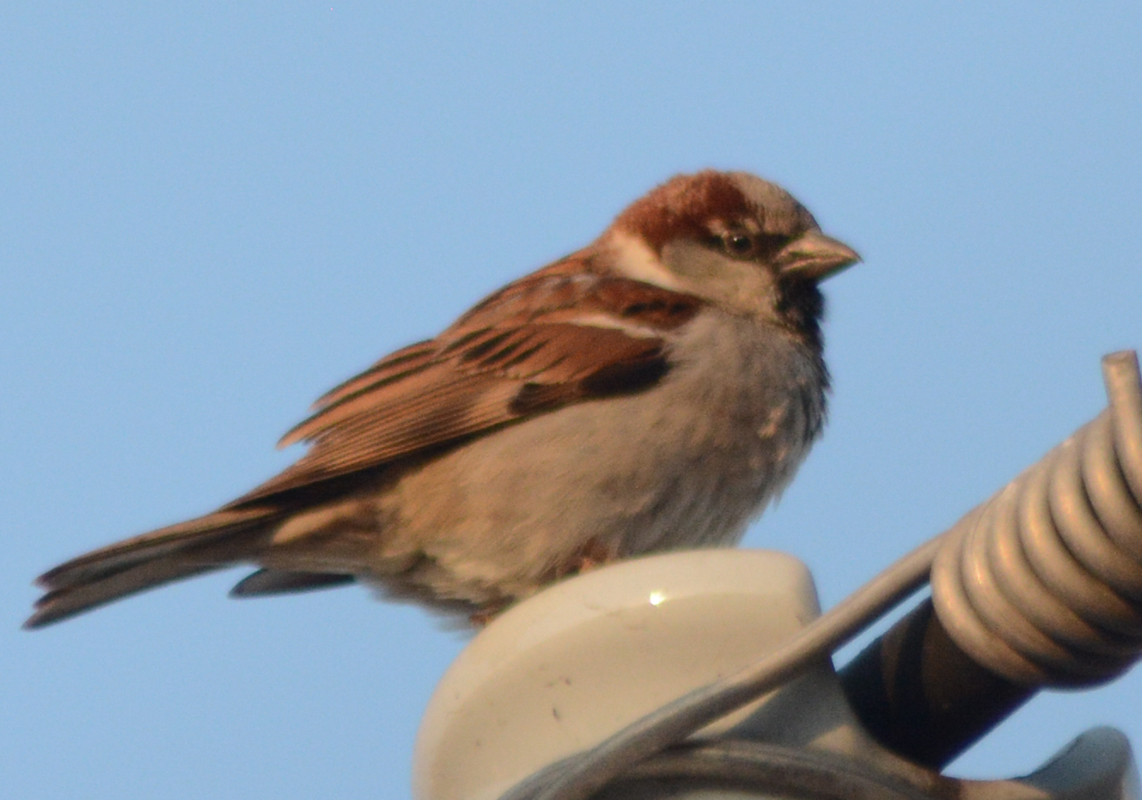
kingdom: Animalia
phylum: Chordata
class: Aves
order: Passeriformes
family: Passeridae
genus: Passer
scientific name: Passer domesticus
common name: House sparrow
